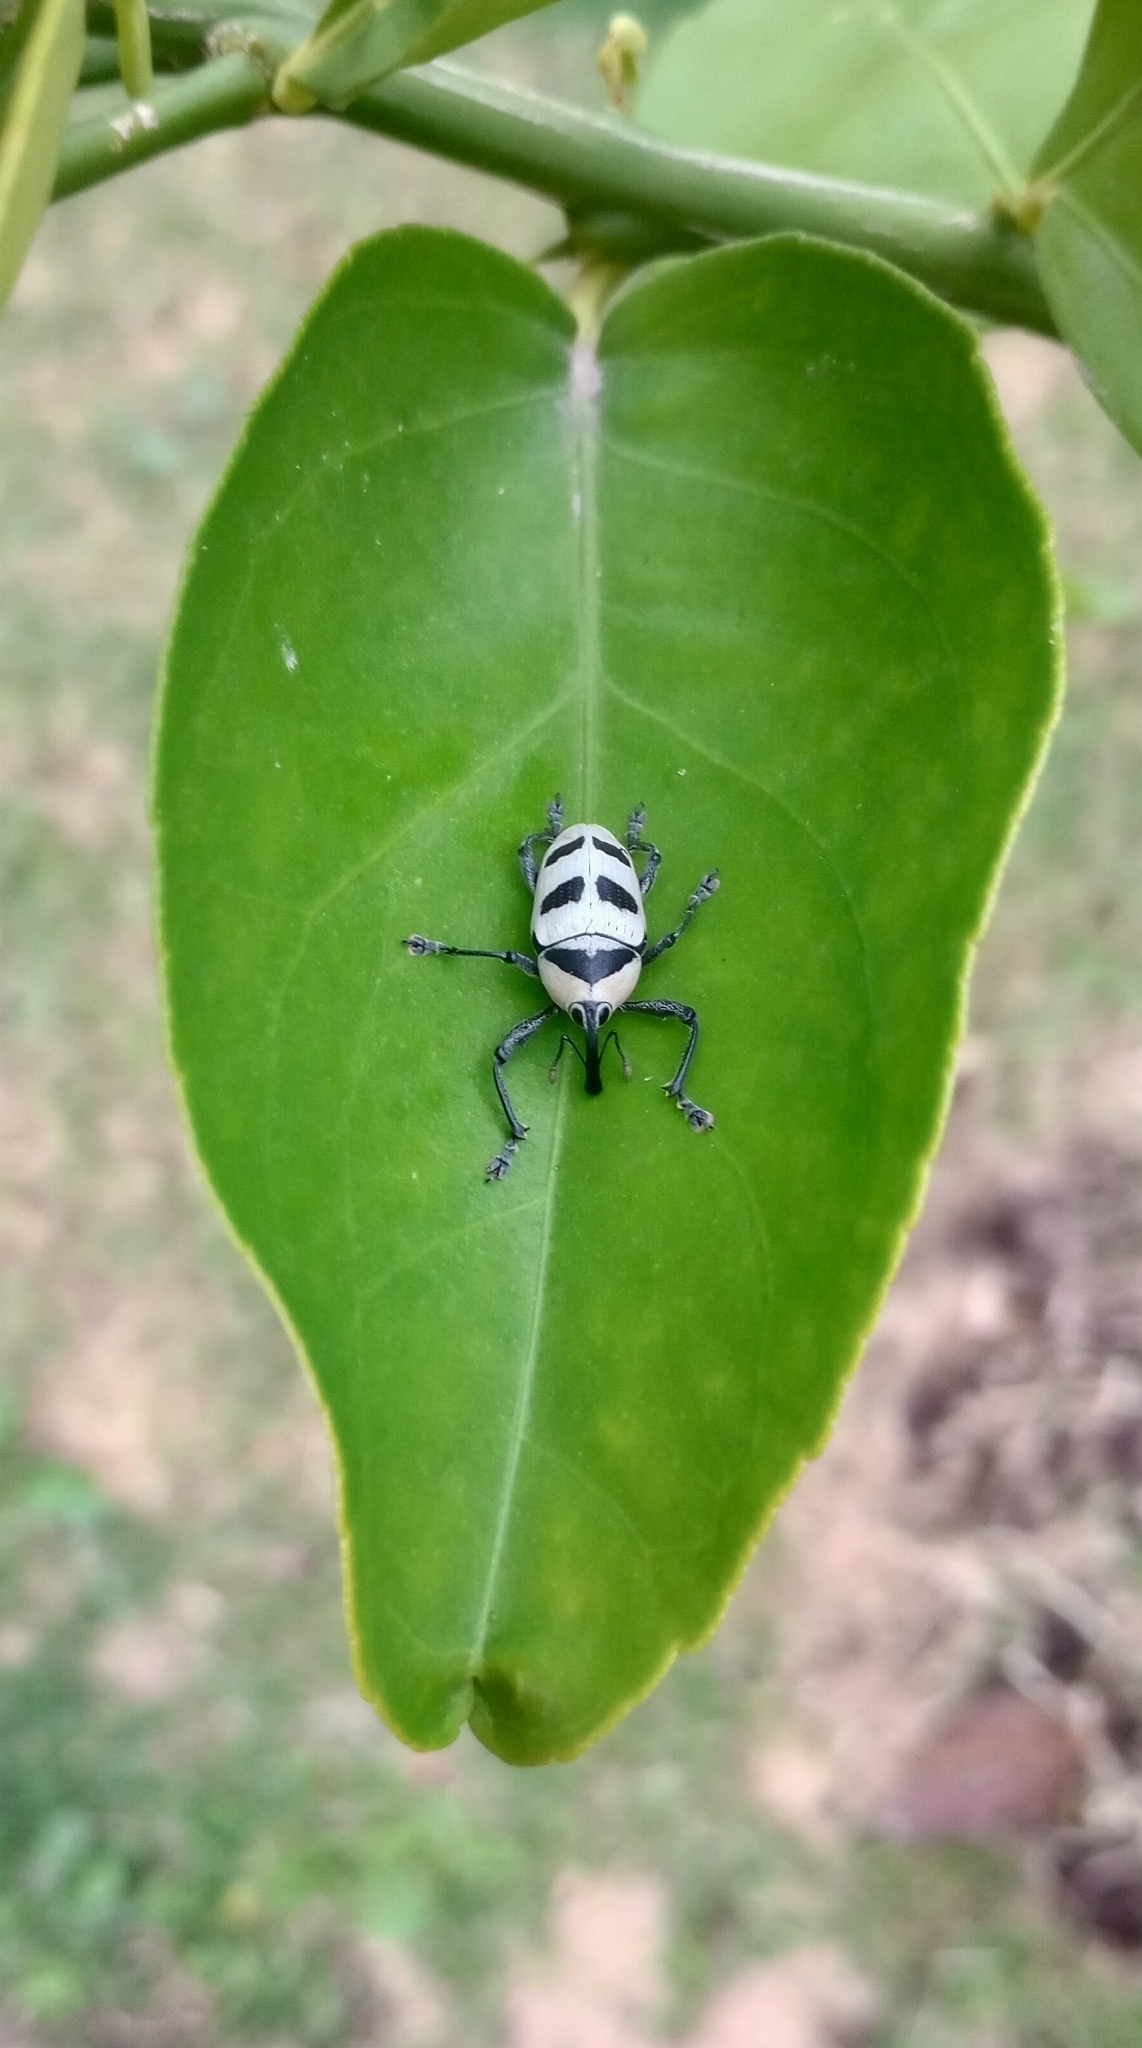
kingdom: Animalia
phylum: Arthropoda
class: Insecta
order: Coleoptera
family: Curculionidae
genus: Cholus
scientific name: Cholus annulatus
